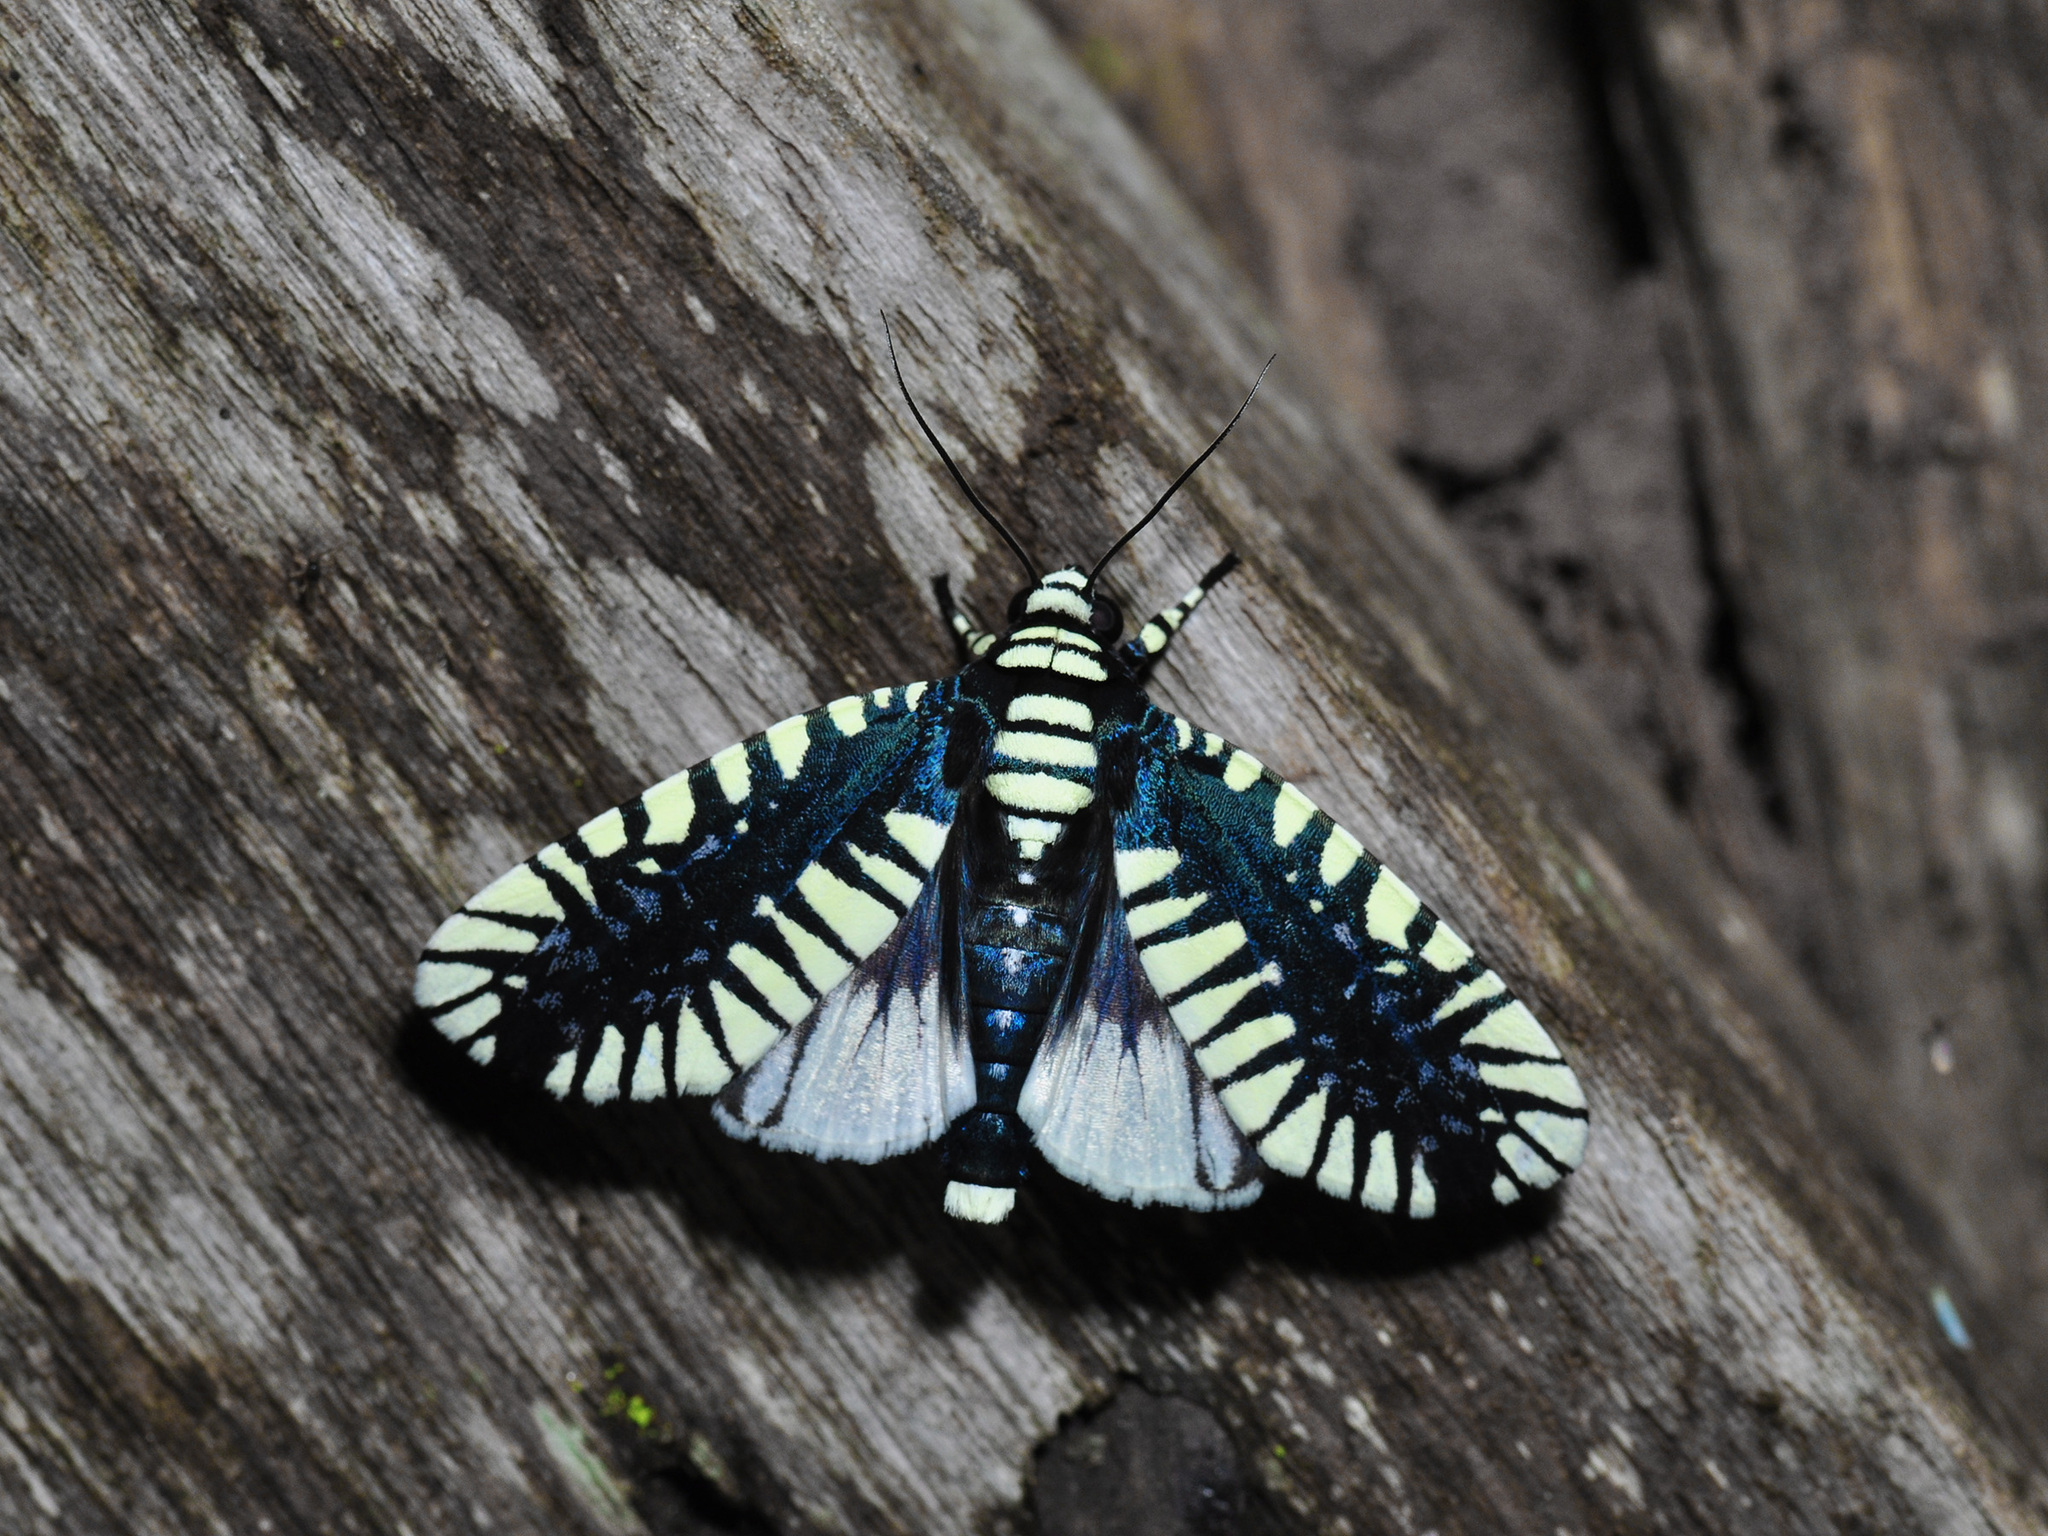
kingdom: Animalia
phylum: Arthropoda
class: Insecta
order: Lepidoptera
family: Noctuidae
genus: Apsarasa
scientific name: Apsarasa radians
